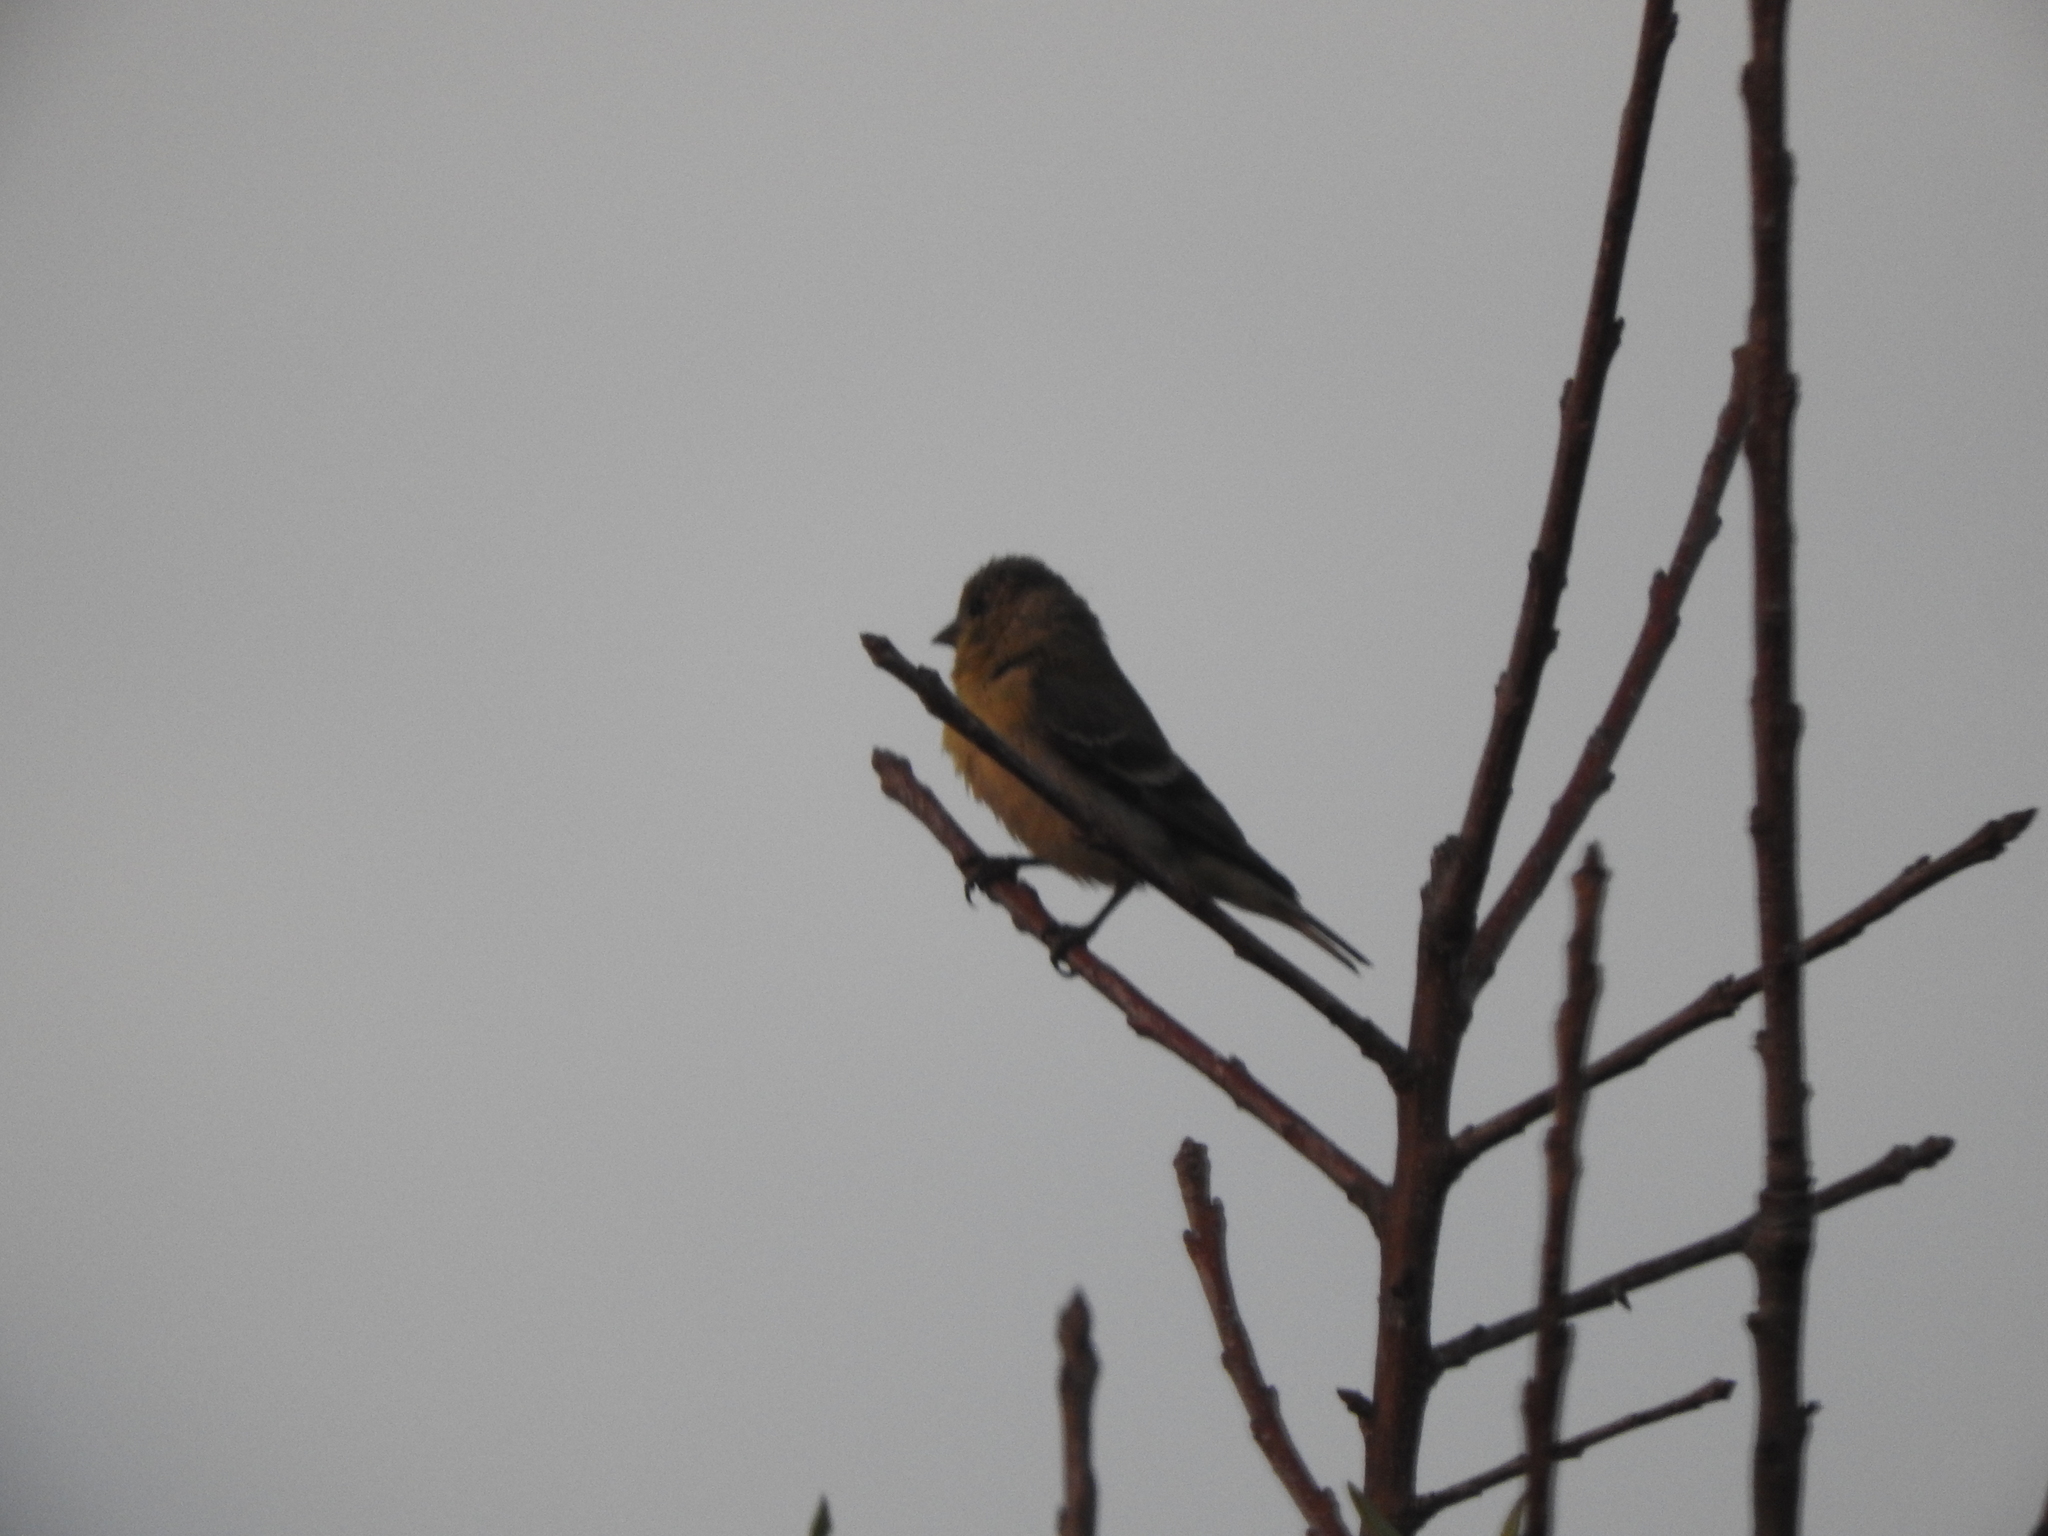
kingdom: Animalia
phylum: Chordata
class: Aves
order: Passeriformes
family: Fringillidae
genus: Spinus
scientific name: Spinus psaltria
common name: Lesser goldfinch
